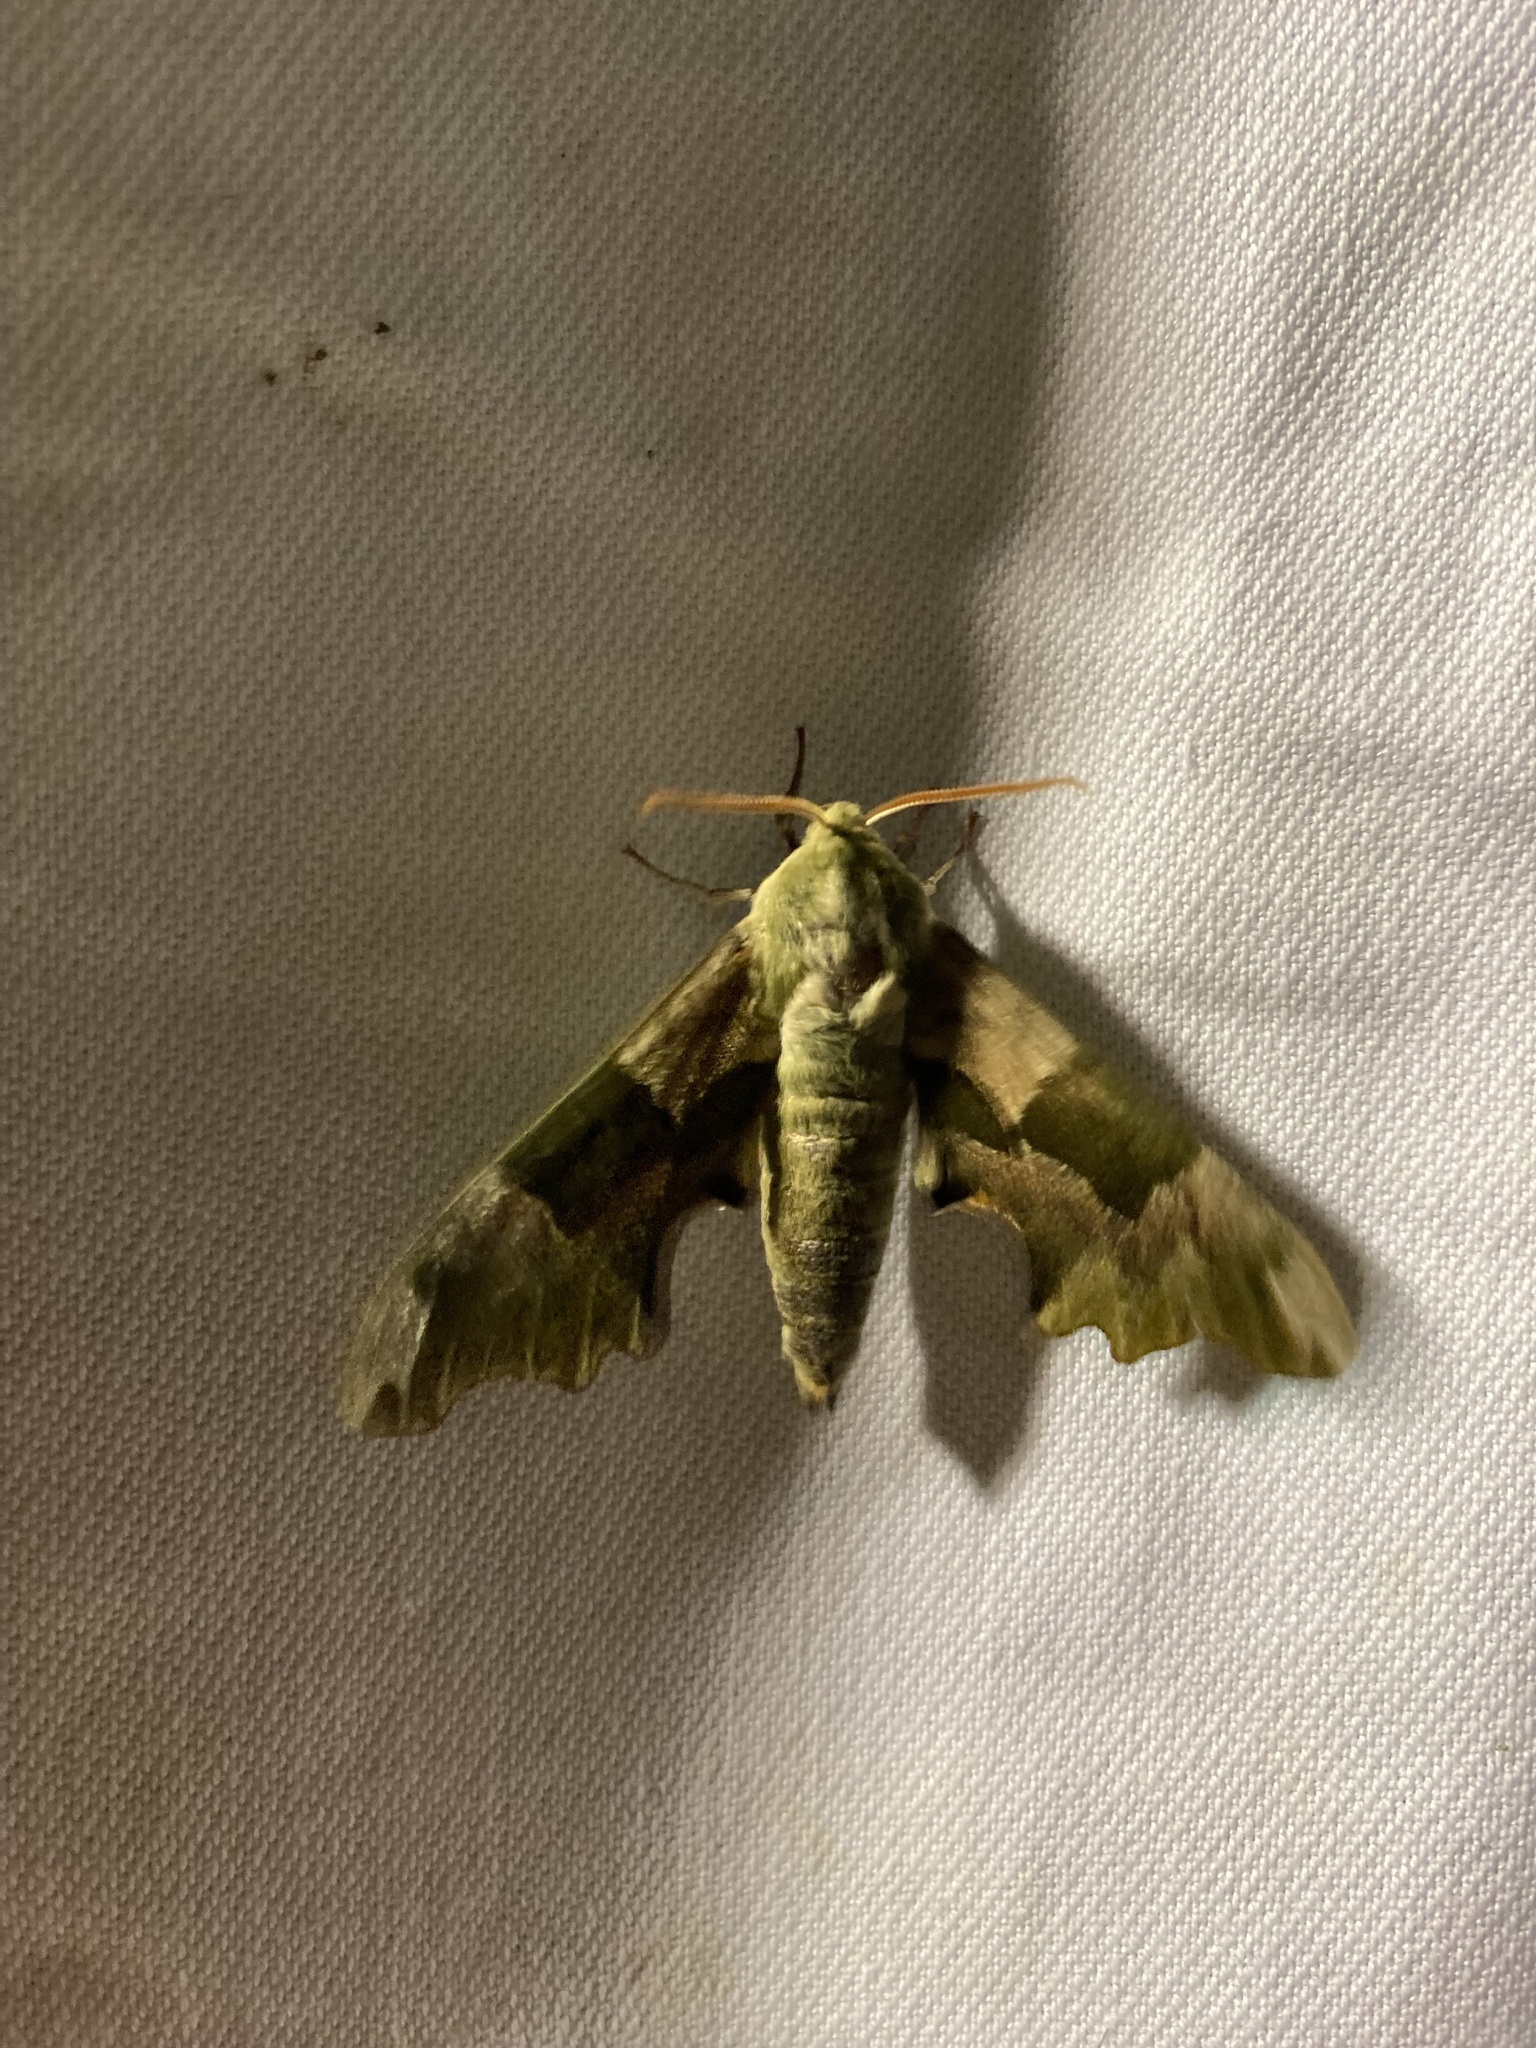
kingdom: Animalia
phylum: Arthropoda
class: Insecta
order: Lepidoptera
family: Sphingidae
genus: Mimas
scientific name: Mimas tiliae
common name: Lime hawk-moth
